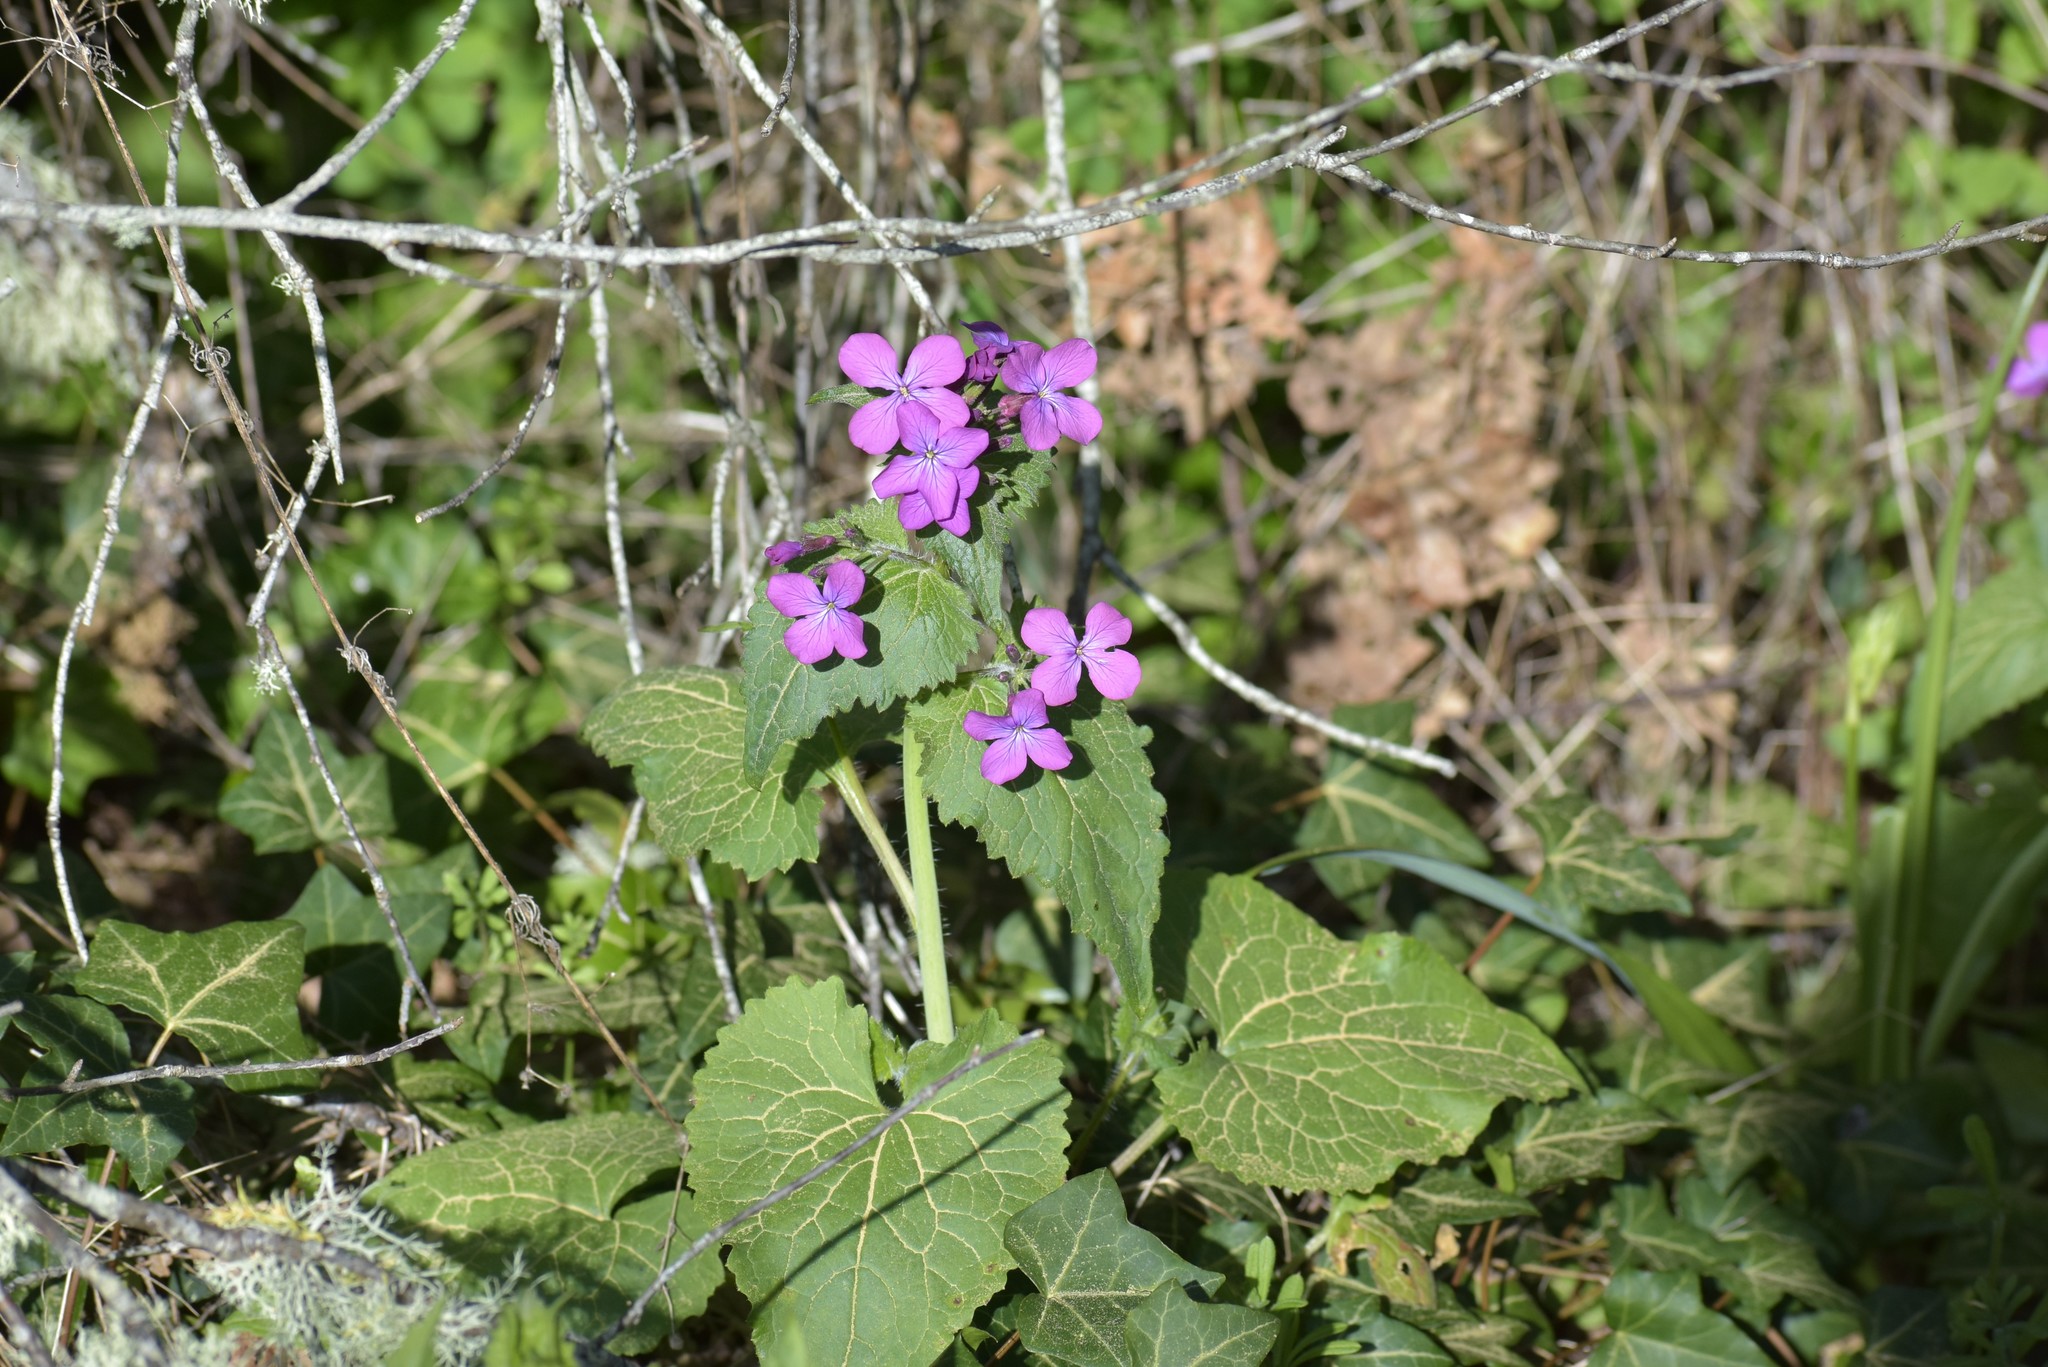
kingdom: Plantae
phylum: Tracheophyta
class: Magnoliopsida
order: Brassicales
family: Brassicaceae
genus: Lunaria
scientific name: Lunaria annua
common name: Honesty
